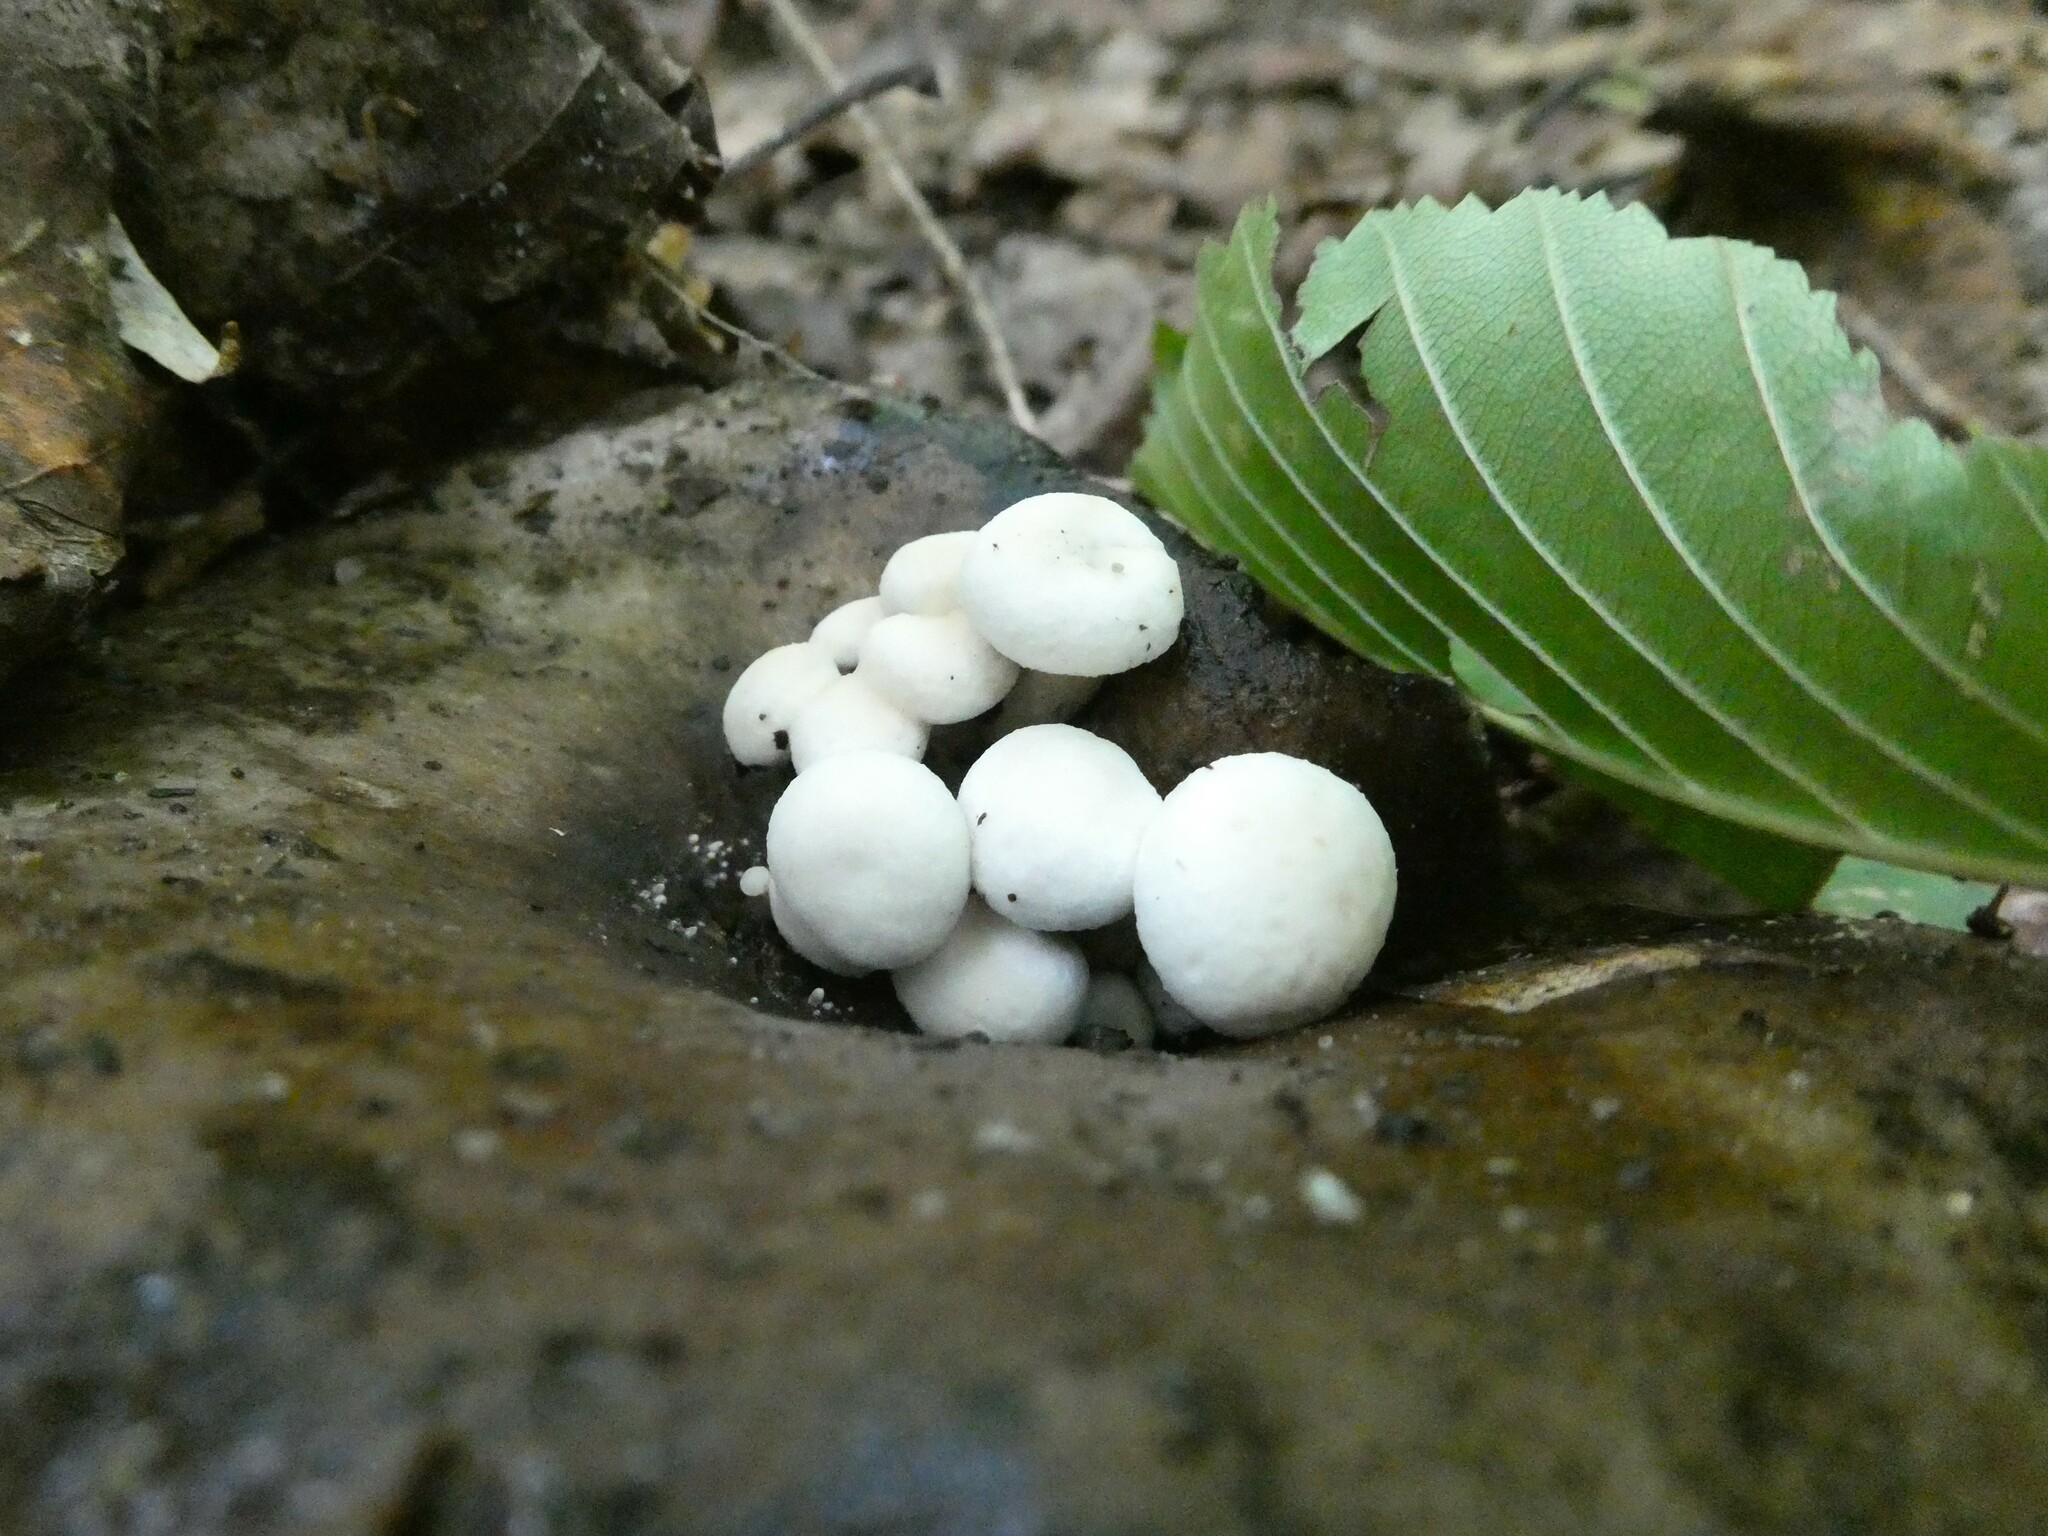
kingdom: Fungi
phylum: Basidiomycota
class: Agaricomycetes
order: Agaricales
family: Lyophyllaceae
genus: Asterophora
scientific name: Asterophora lycoperdoides
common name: Pick-a-back toadstool
